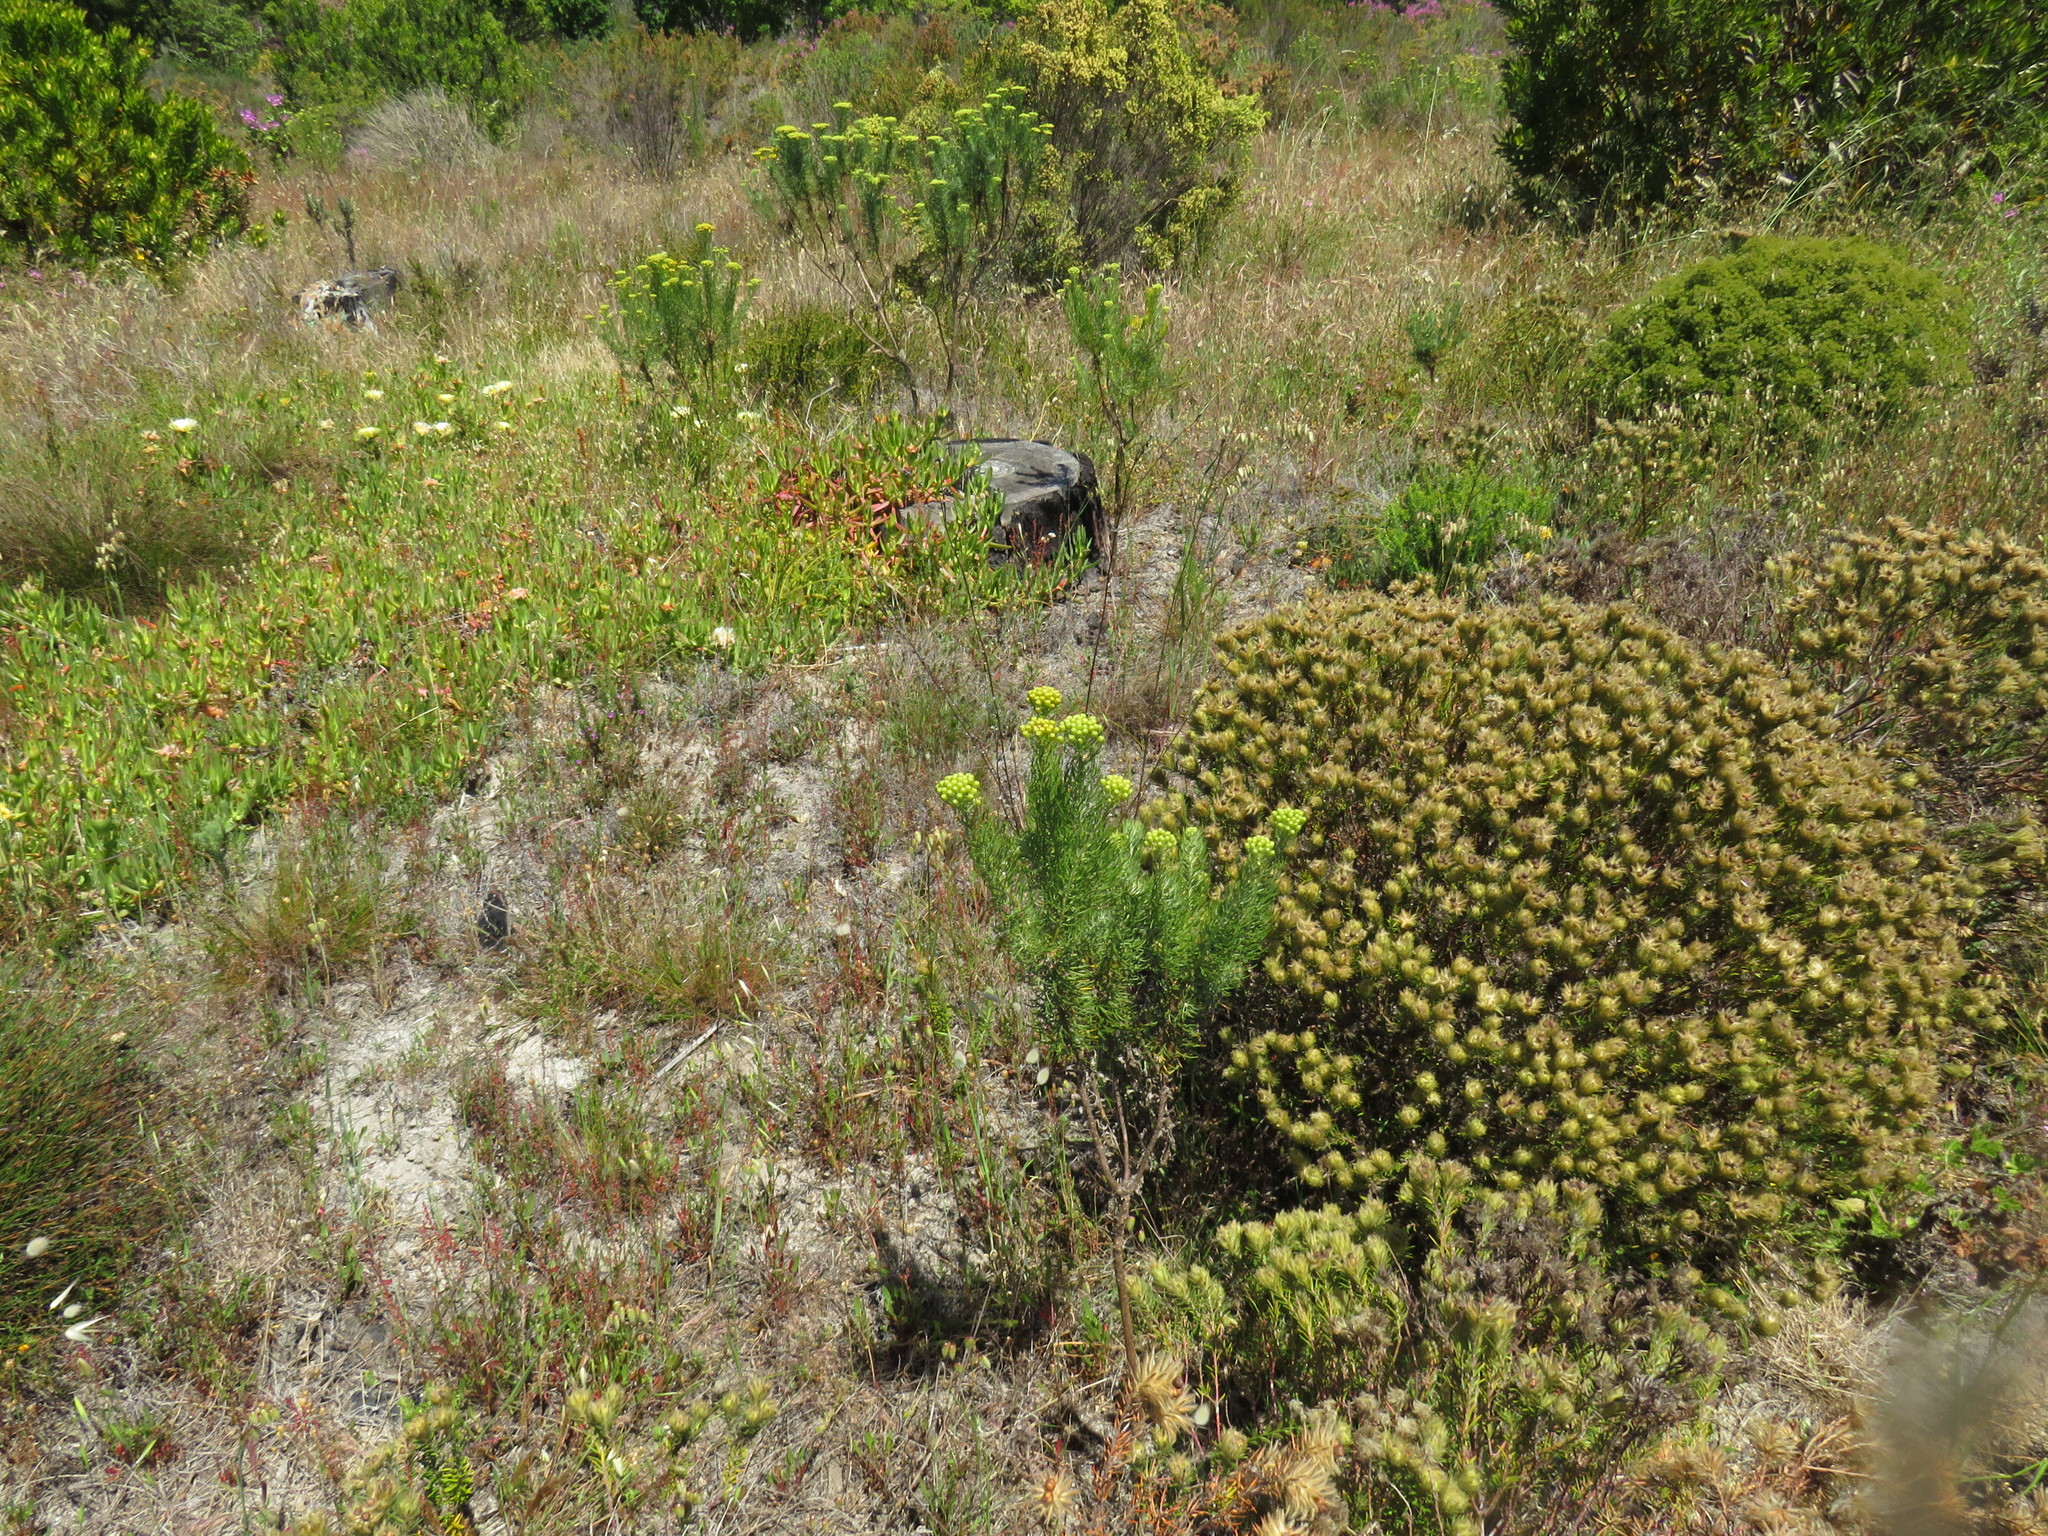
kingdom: Plantae
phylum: Tracheophyta
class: Magnoliopsida
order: Asterales
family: Asteraceae
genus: Athanasia
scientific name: Athanasia crithmifolia
